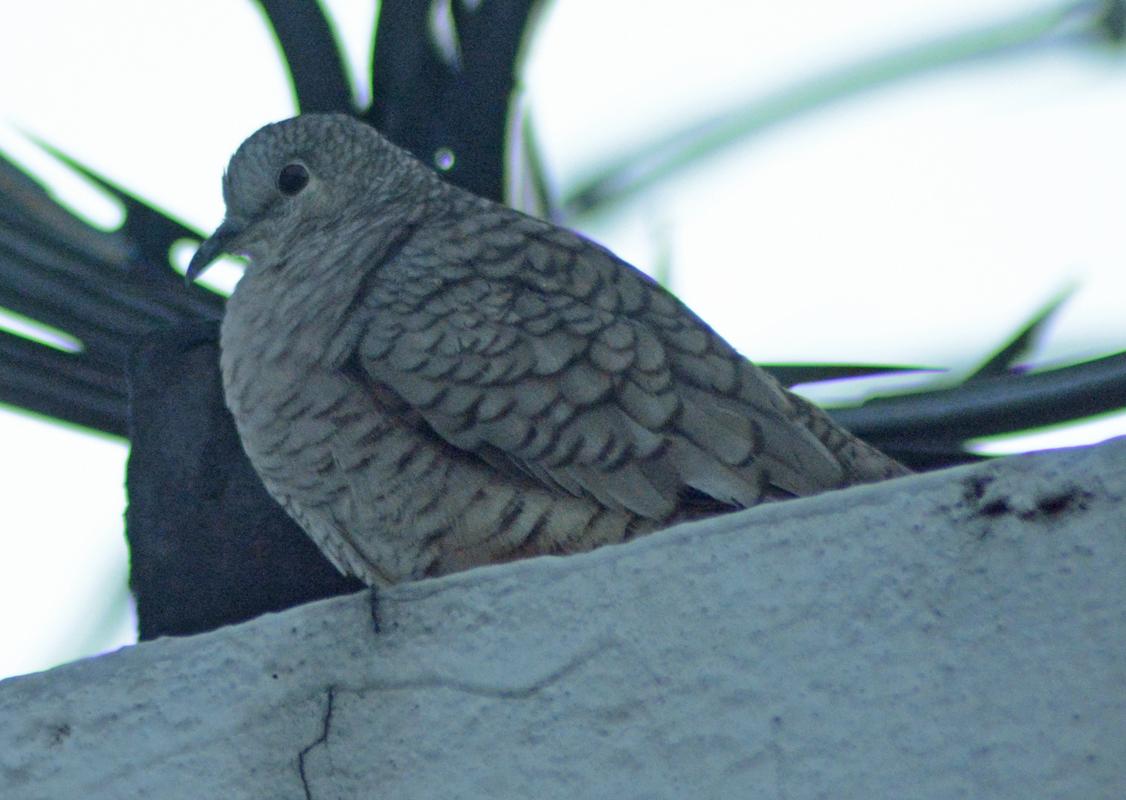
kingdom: Animalia
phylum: Chordata
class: Aves
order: Columbiformes
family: Columbidae
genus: Columbina
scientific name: Columbina inca
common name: Inca dove
